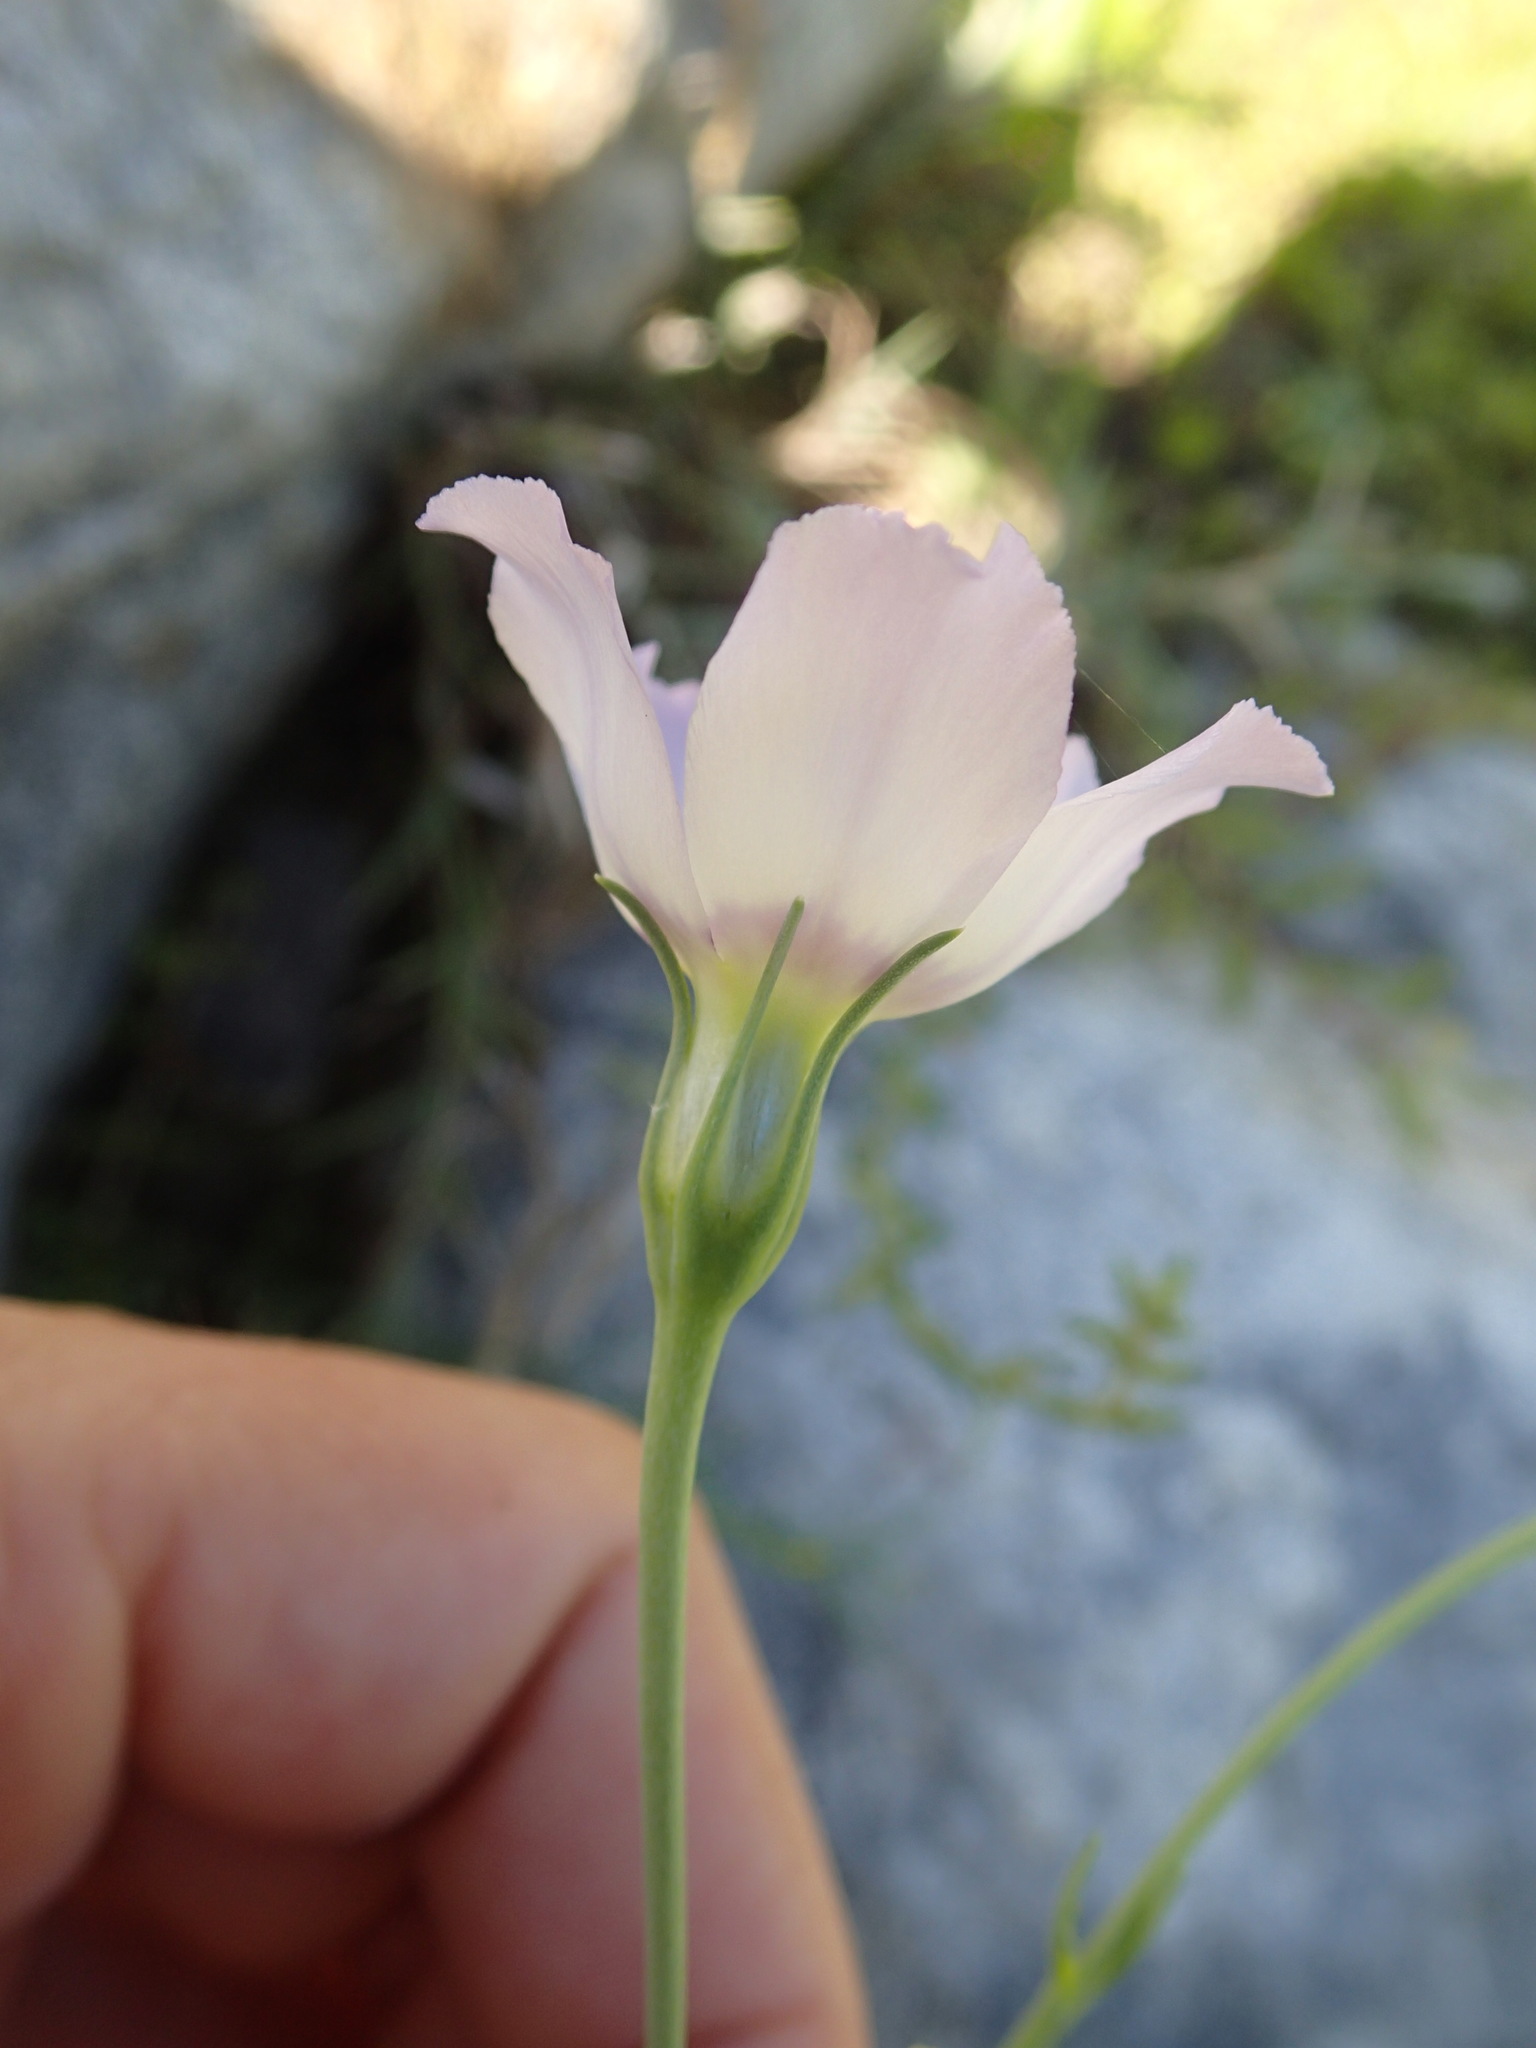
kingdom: Plantae
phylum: Tracheophyta
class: Magnoliopsida
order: Gentianales
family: Gentianaceae
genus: Eustoma
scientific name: Eustoma exaltatum
